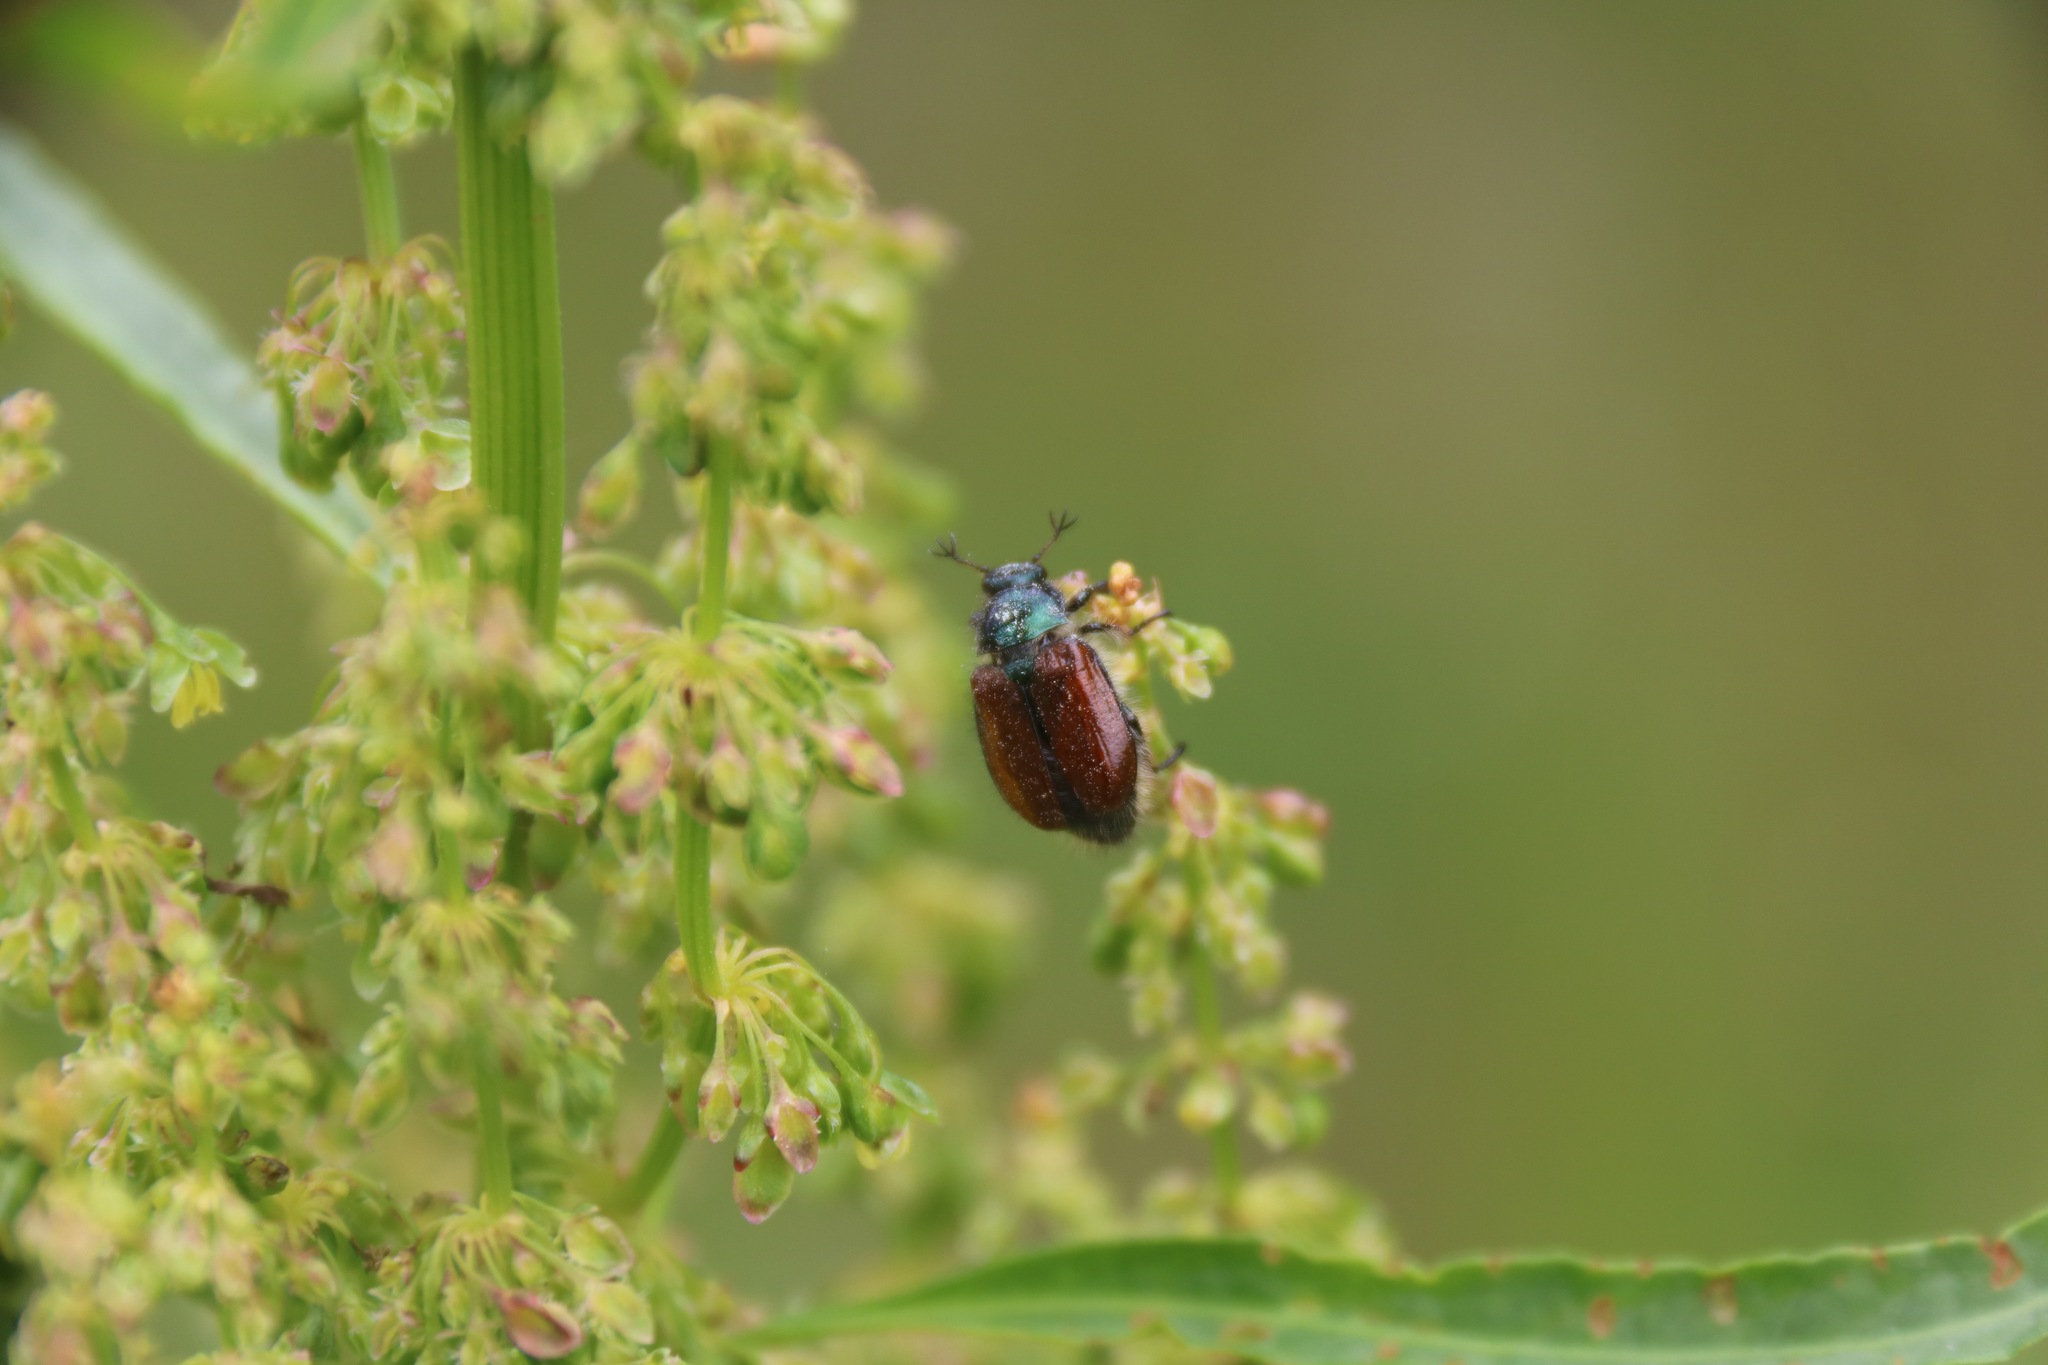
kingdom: Animalia
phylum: Arthropoda
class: Insecta
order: Coleoptera
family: Scarabaeidae
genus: Phyllopertha
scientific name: Phyllopertha horticola
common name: Garden chafer
